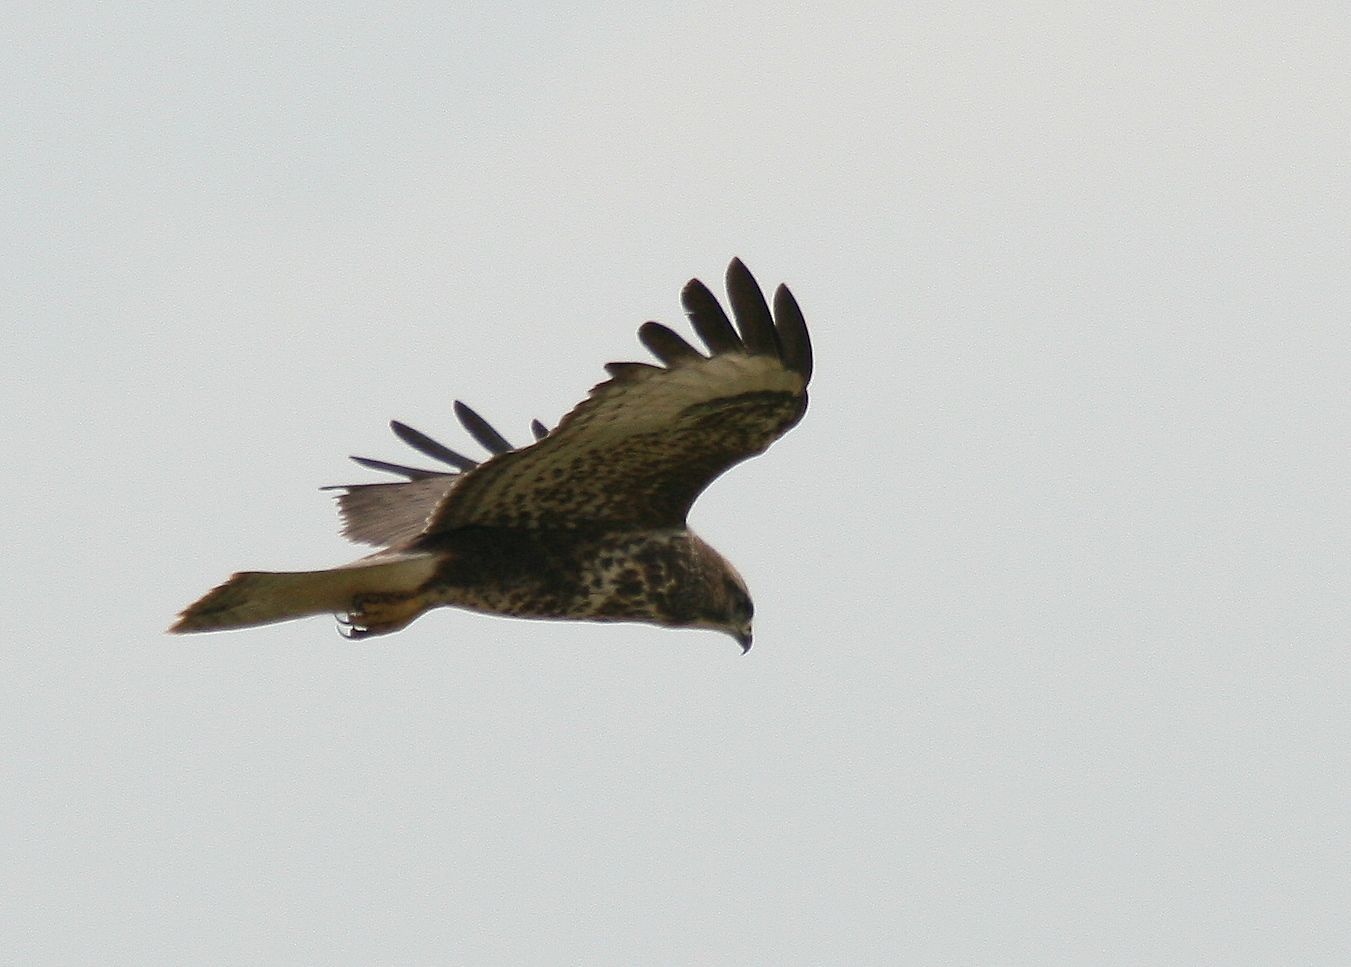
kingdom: Animalia
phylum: Chordata
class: Aves
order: Accipitriformes
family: Accipitridae
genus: Buteo
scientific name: Buteo buteo
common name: Common buzzard
